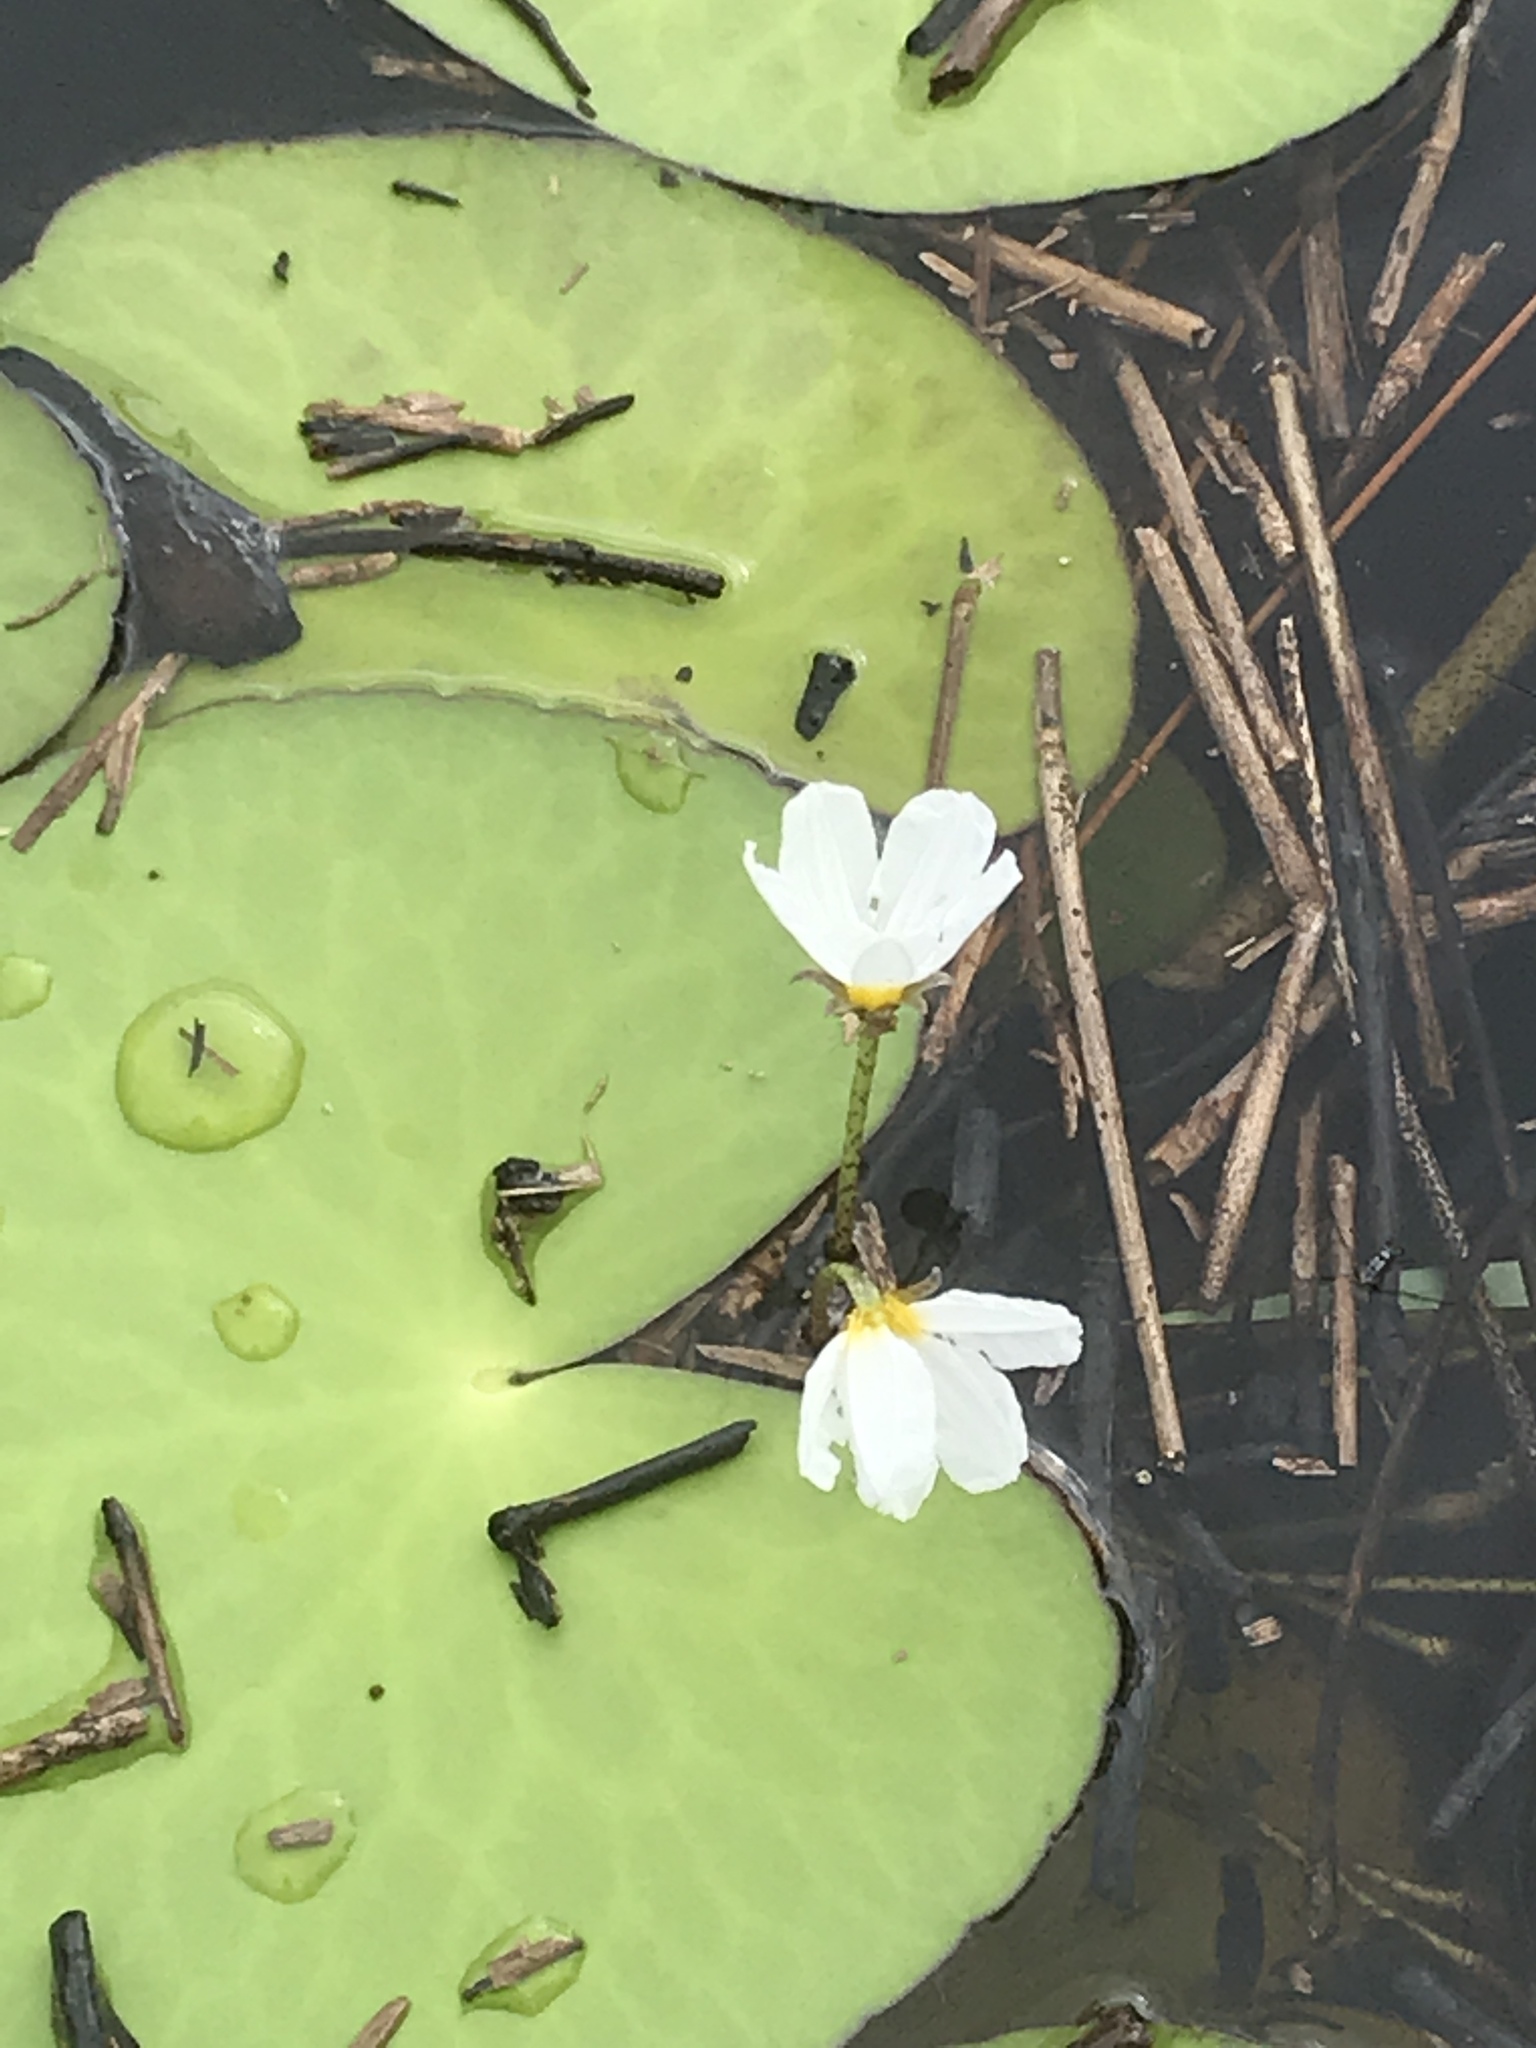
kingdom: Plantae
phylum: Tracheophyta
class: Magnoliopsida
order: Asterales
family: Menyanthaceae
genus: Nymphoides
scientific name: Nymphoides aquatica
